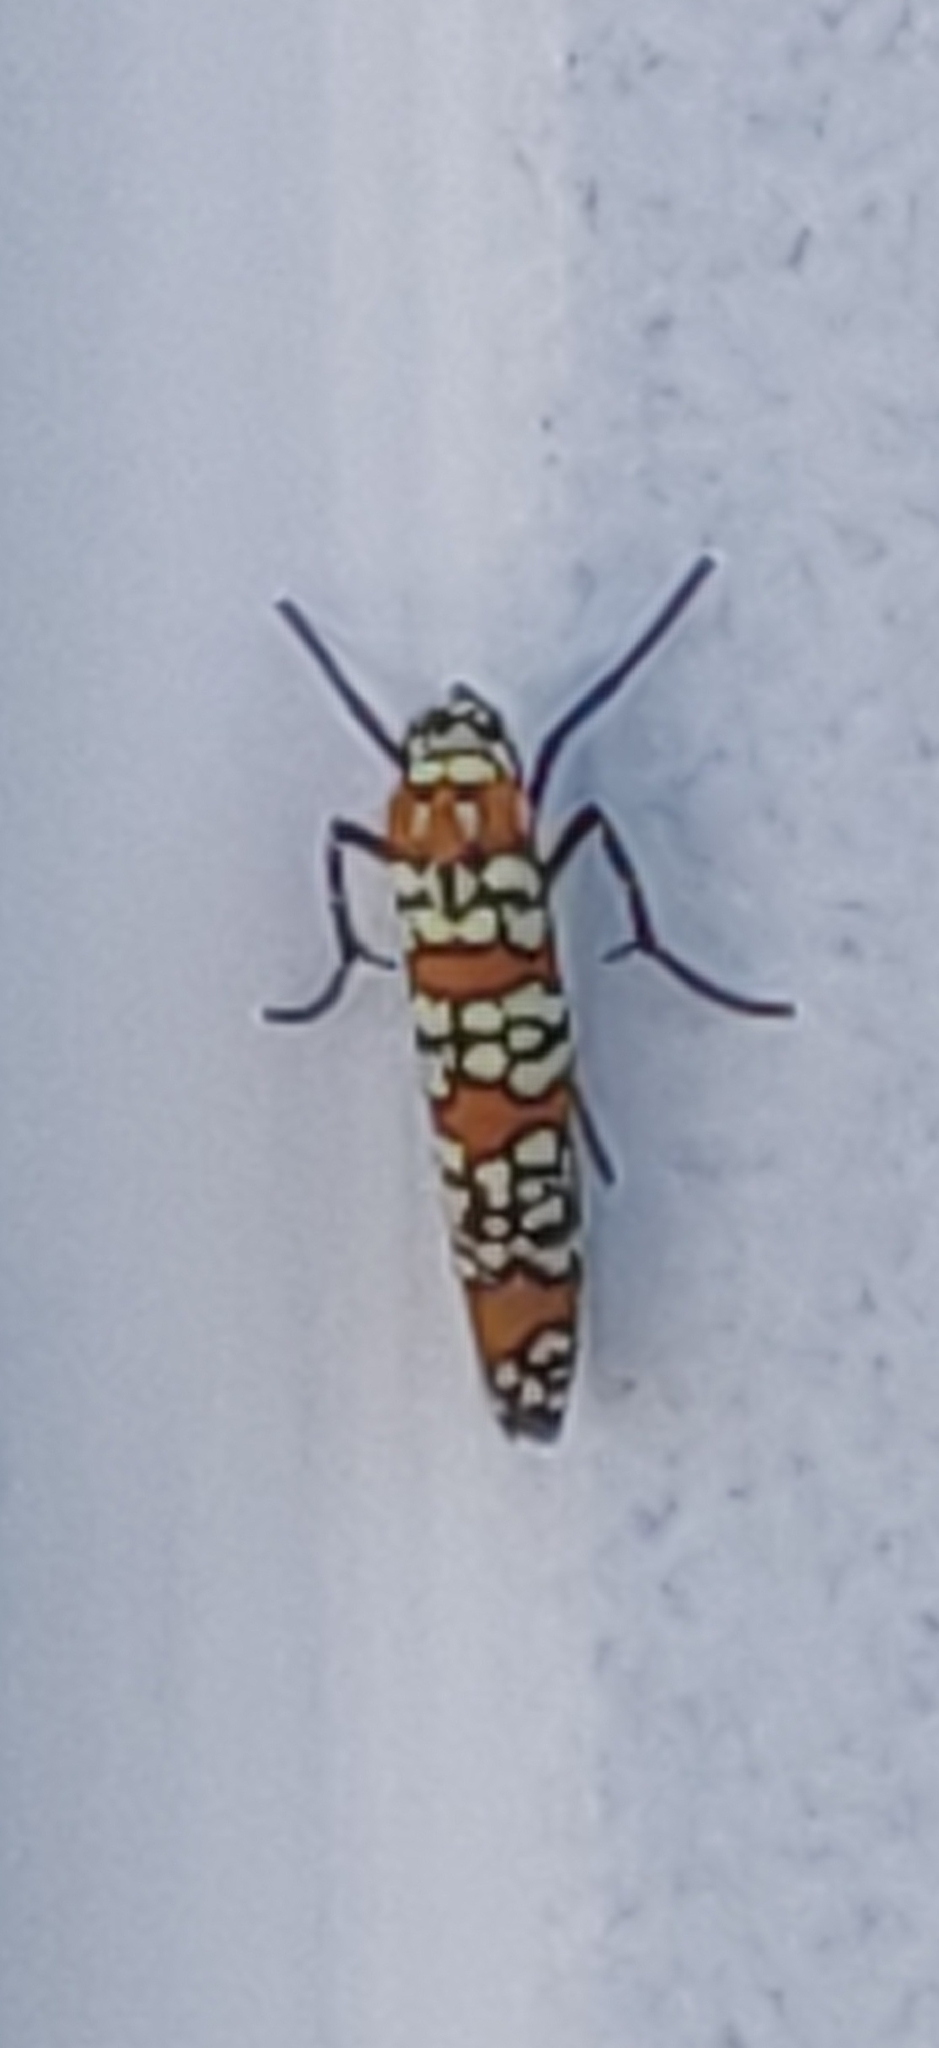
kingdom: Animalia
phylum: Arthropoda
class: Insecta
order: Lepidoptera
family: Attevidae
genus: Atteva
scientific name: Atteva punctella
